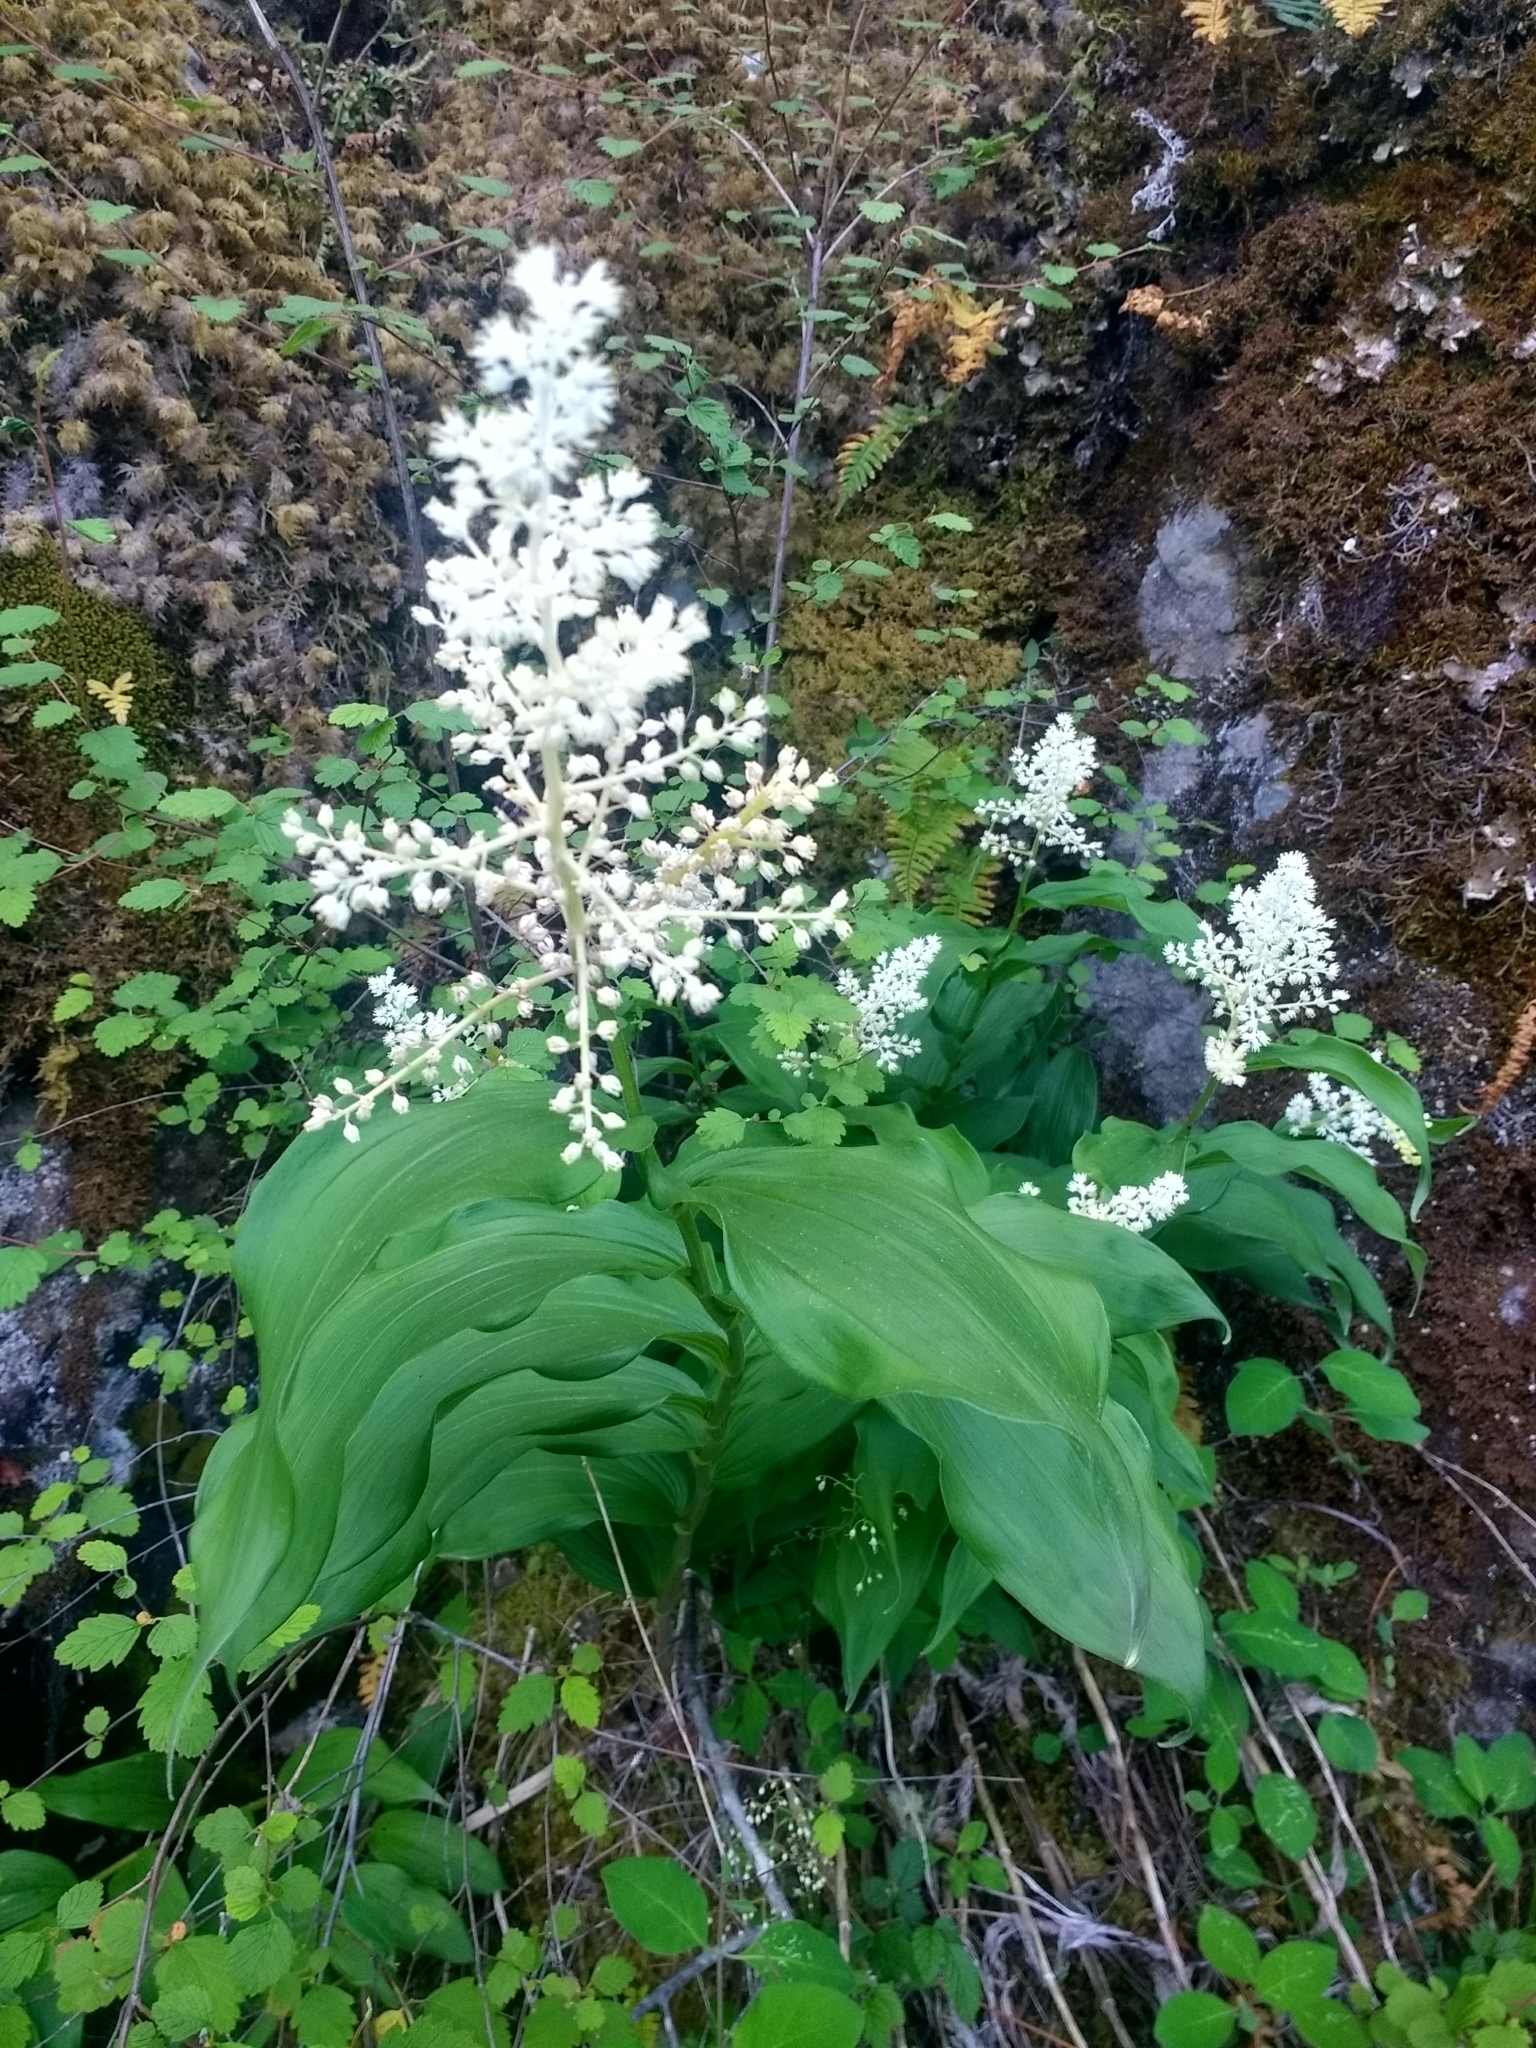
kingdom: Plantae
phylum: Tracheophyta
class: Liliopsida
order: Asparagales
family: Asparagaceae
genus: Maianthemum
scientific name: Maianthemum racemosum
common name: False spikenard
